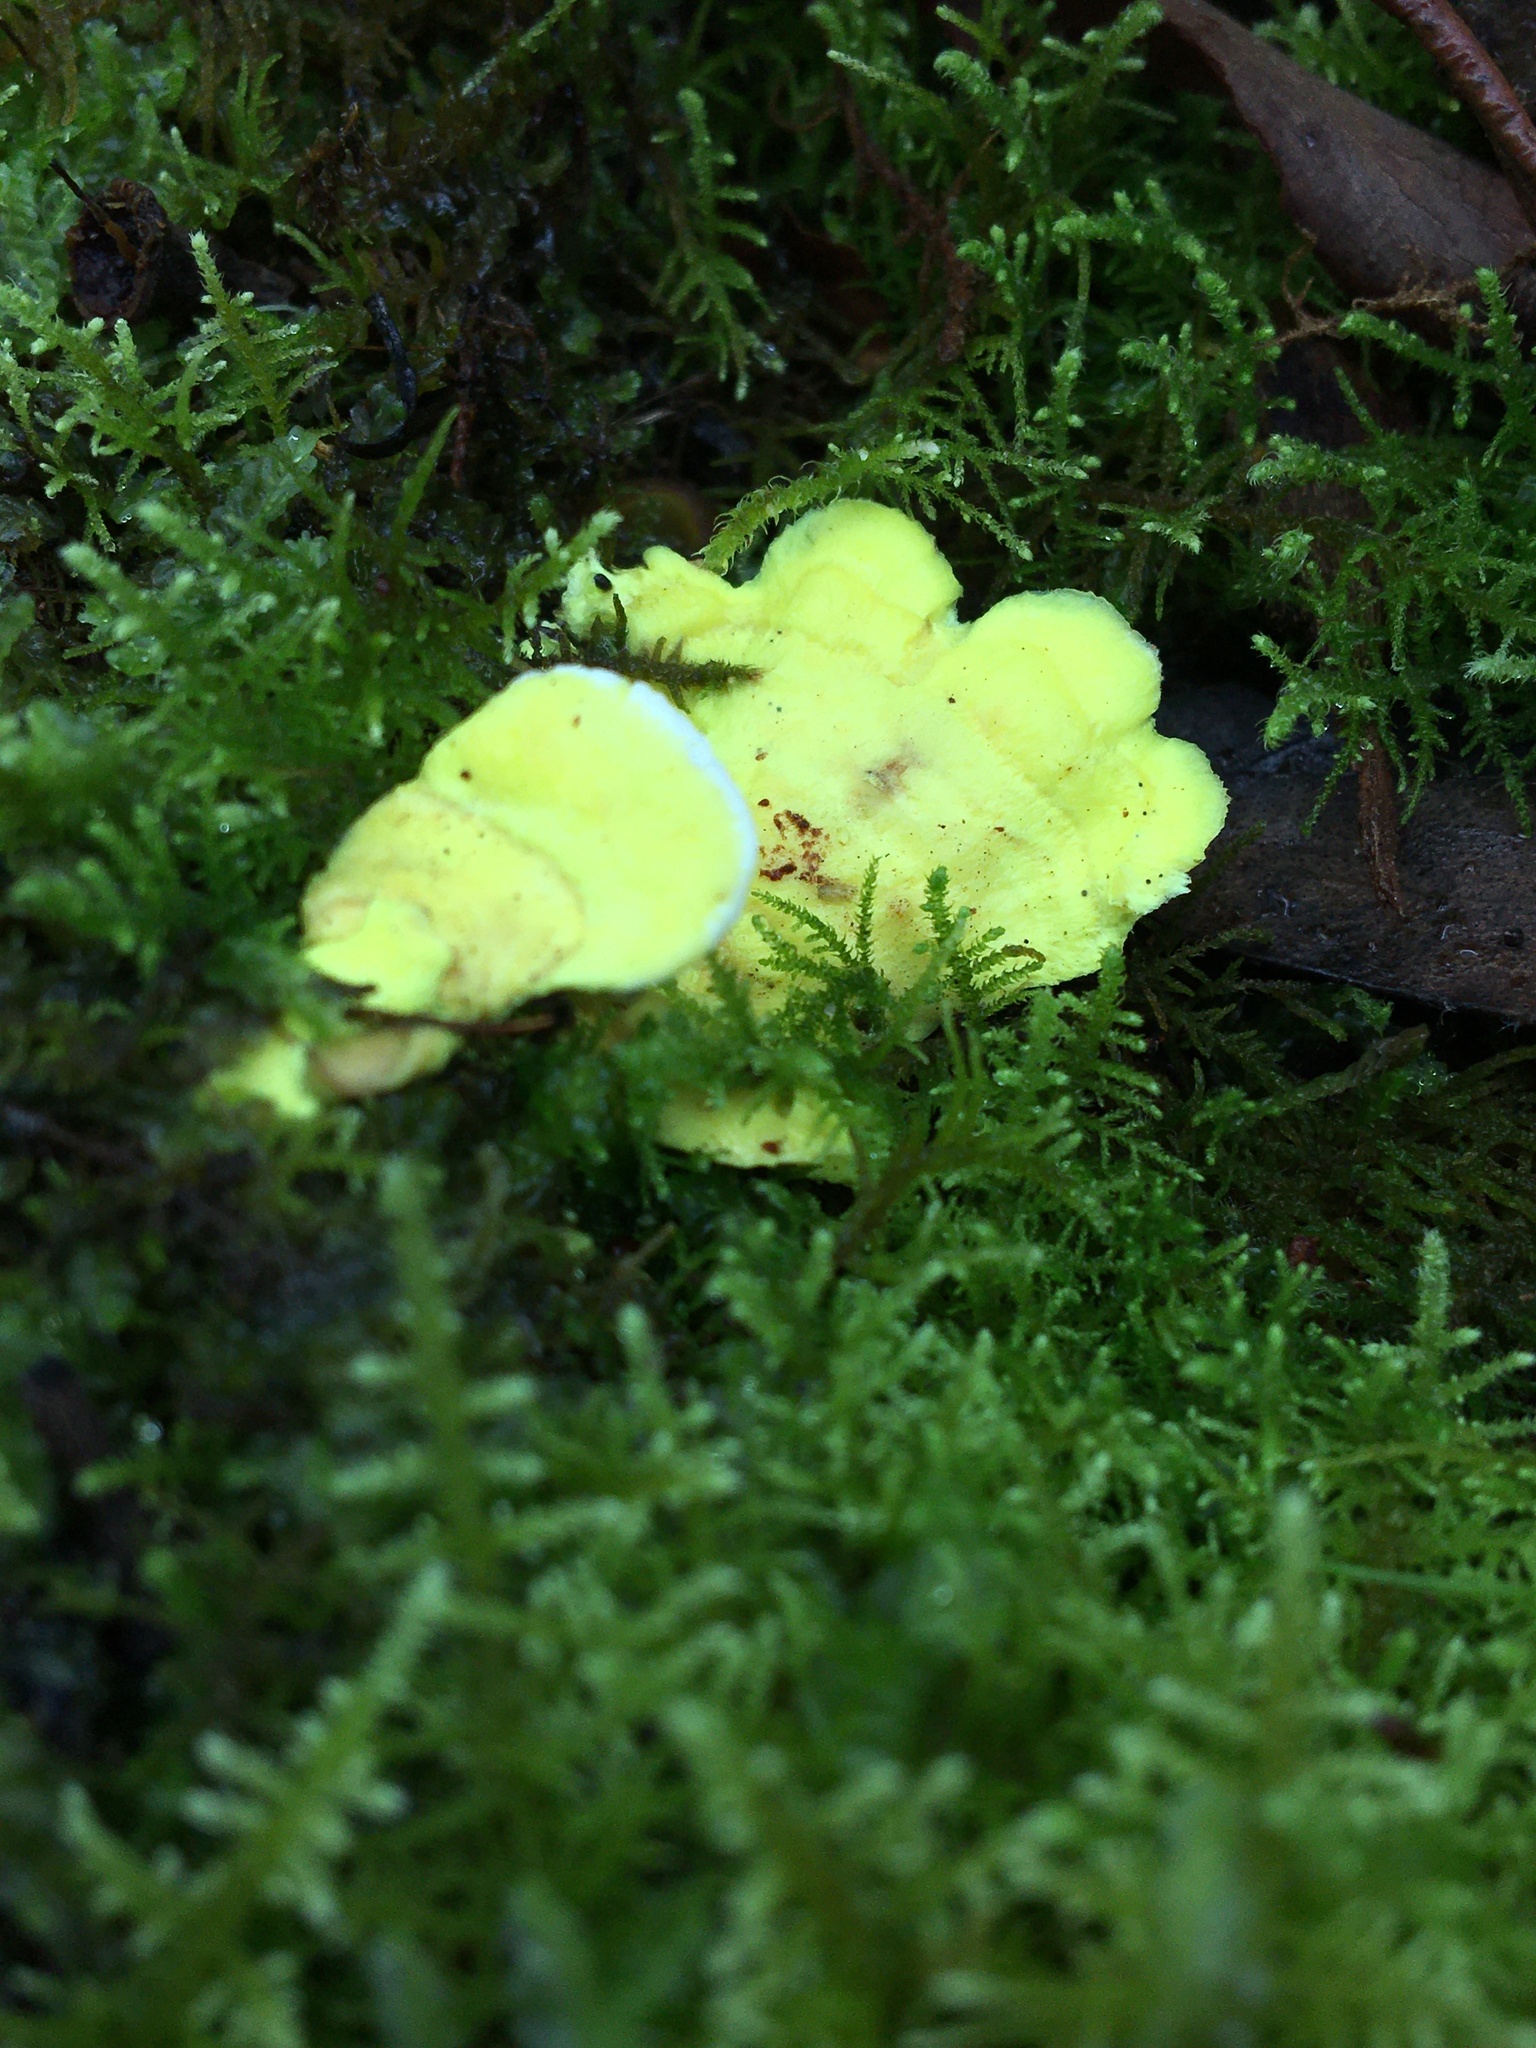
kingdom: Fungi
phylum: Basidiomycota
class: Agaricomycetes
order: Polyporales
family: Steccherinaceae
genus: Austeria
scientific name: Austeria citrea
